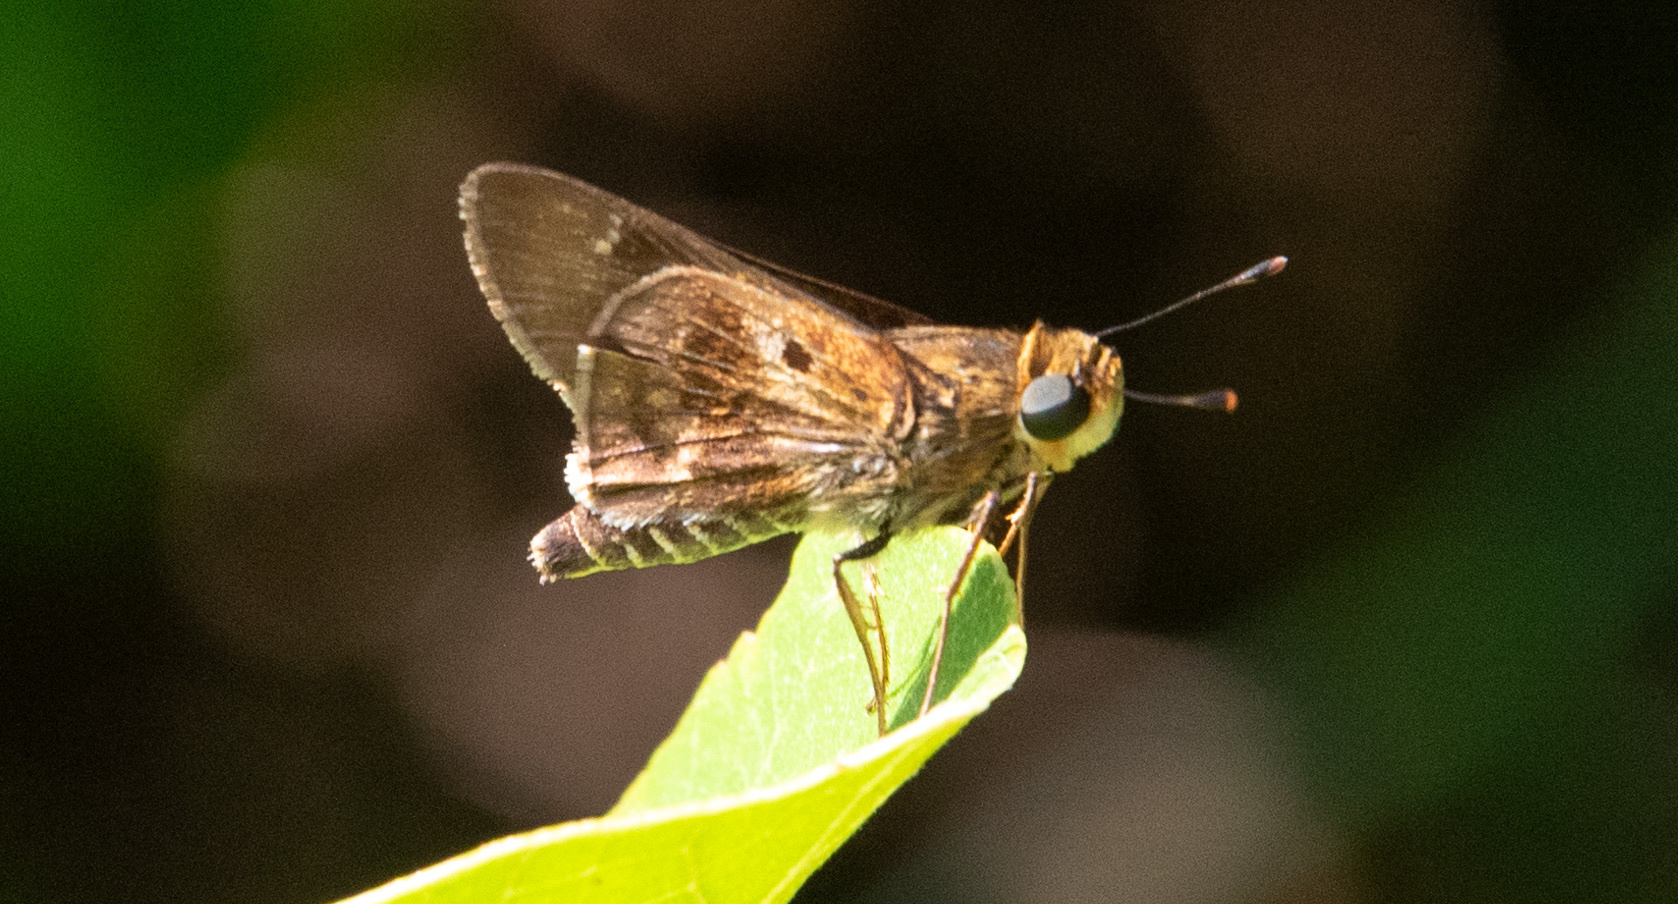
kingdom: Animalia
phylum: Arthropoda
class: Insecta
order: Lepidoptera
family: Hesperiidae
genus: Nyctelius
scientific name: Nyctelius nyctelius
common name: Violet-banded skipper
